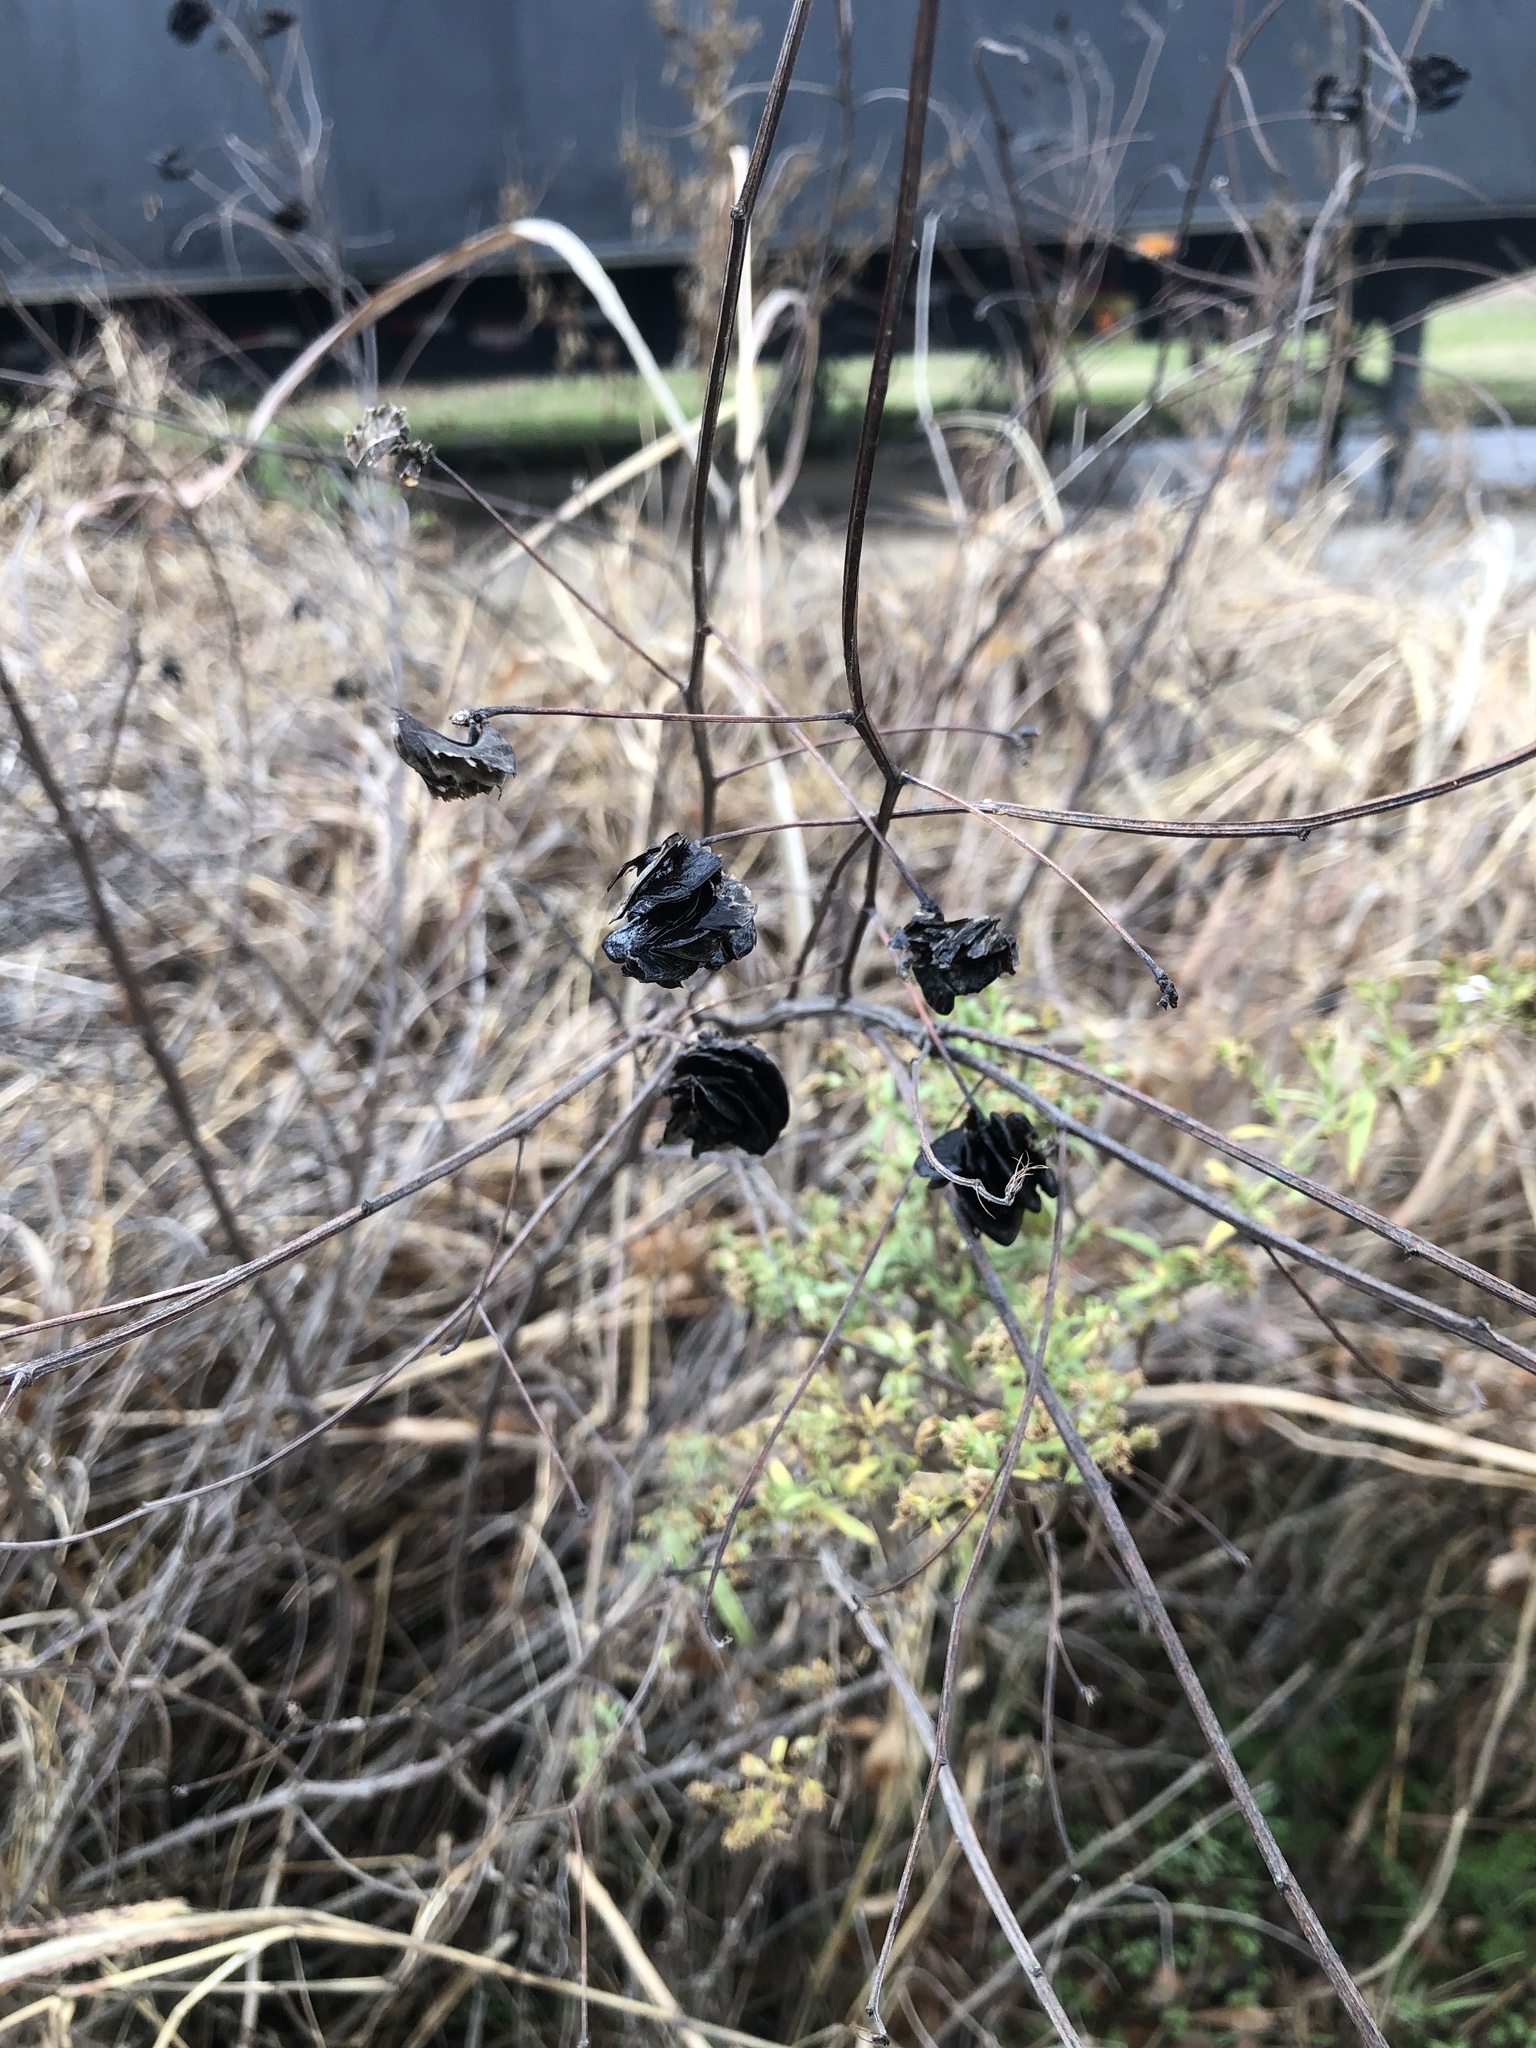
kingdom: Plantae
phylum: Tracheophyta
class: Magnoliopsida
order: Fabales
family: Fabaceae
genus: Desmanthus
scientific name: Desmanthus illinoensis
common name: Illinois bundle-flower
